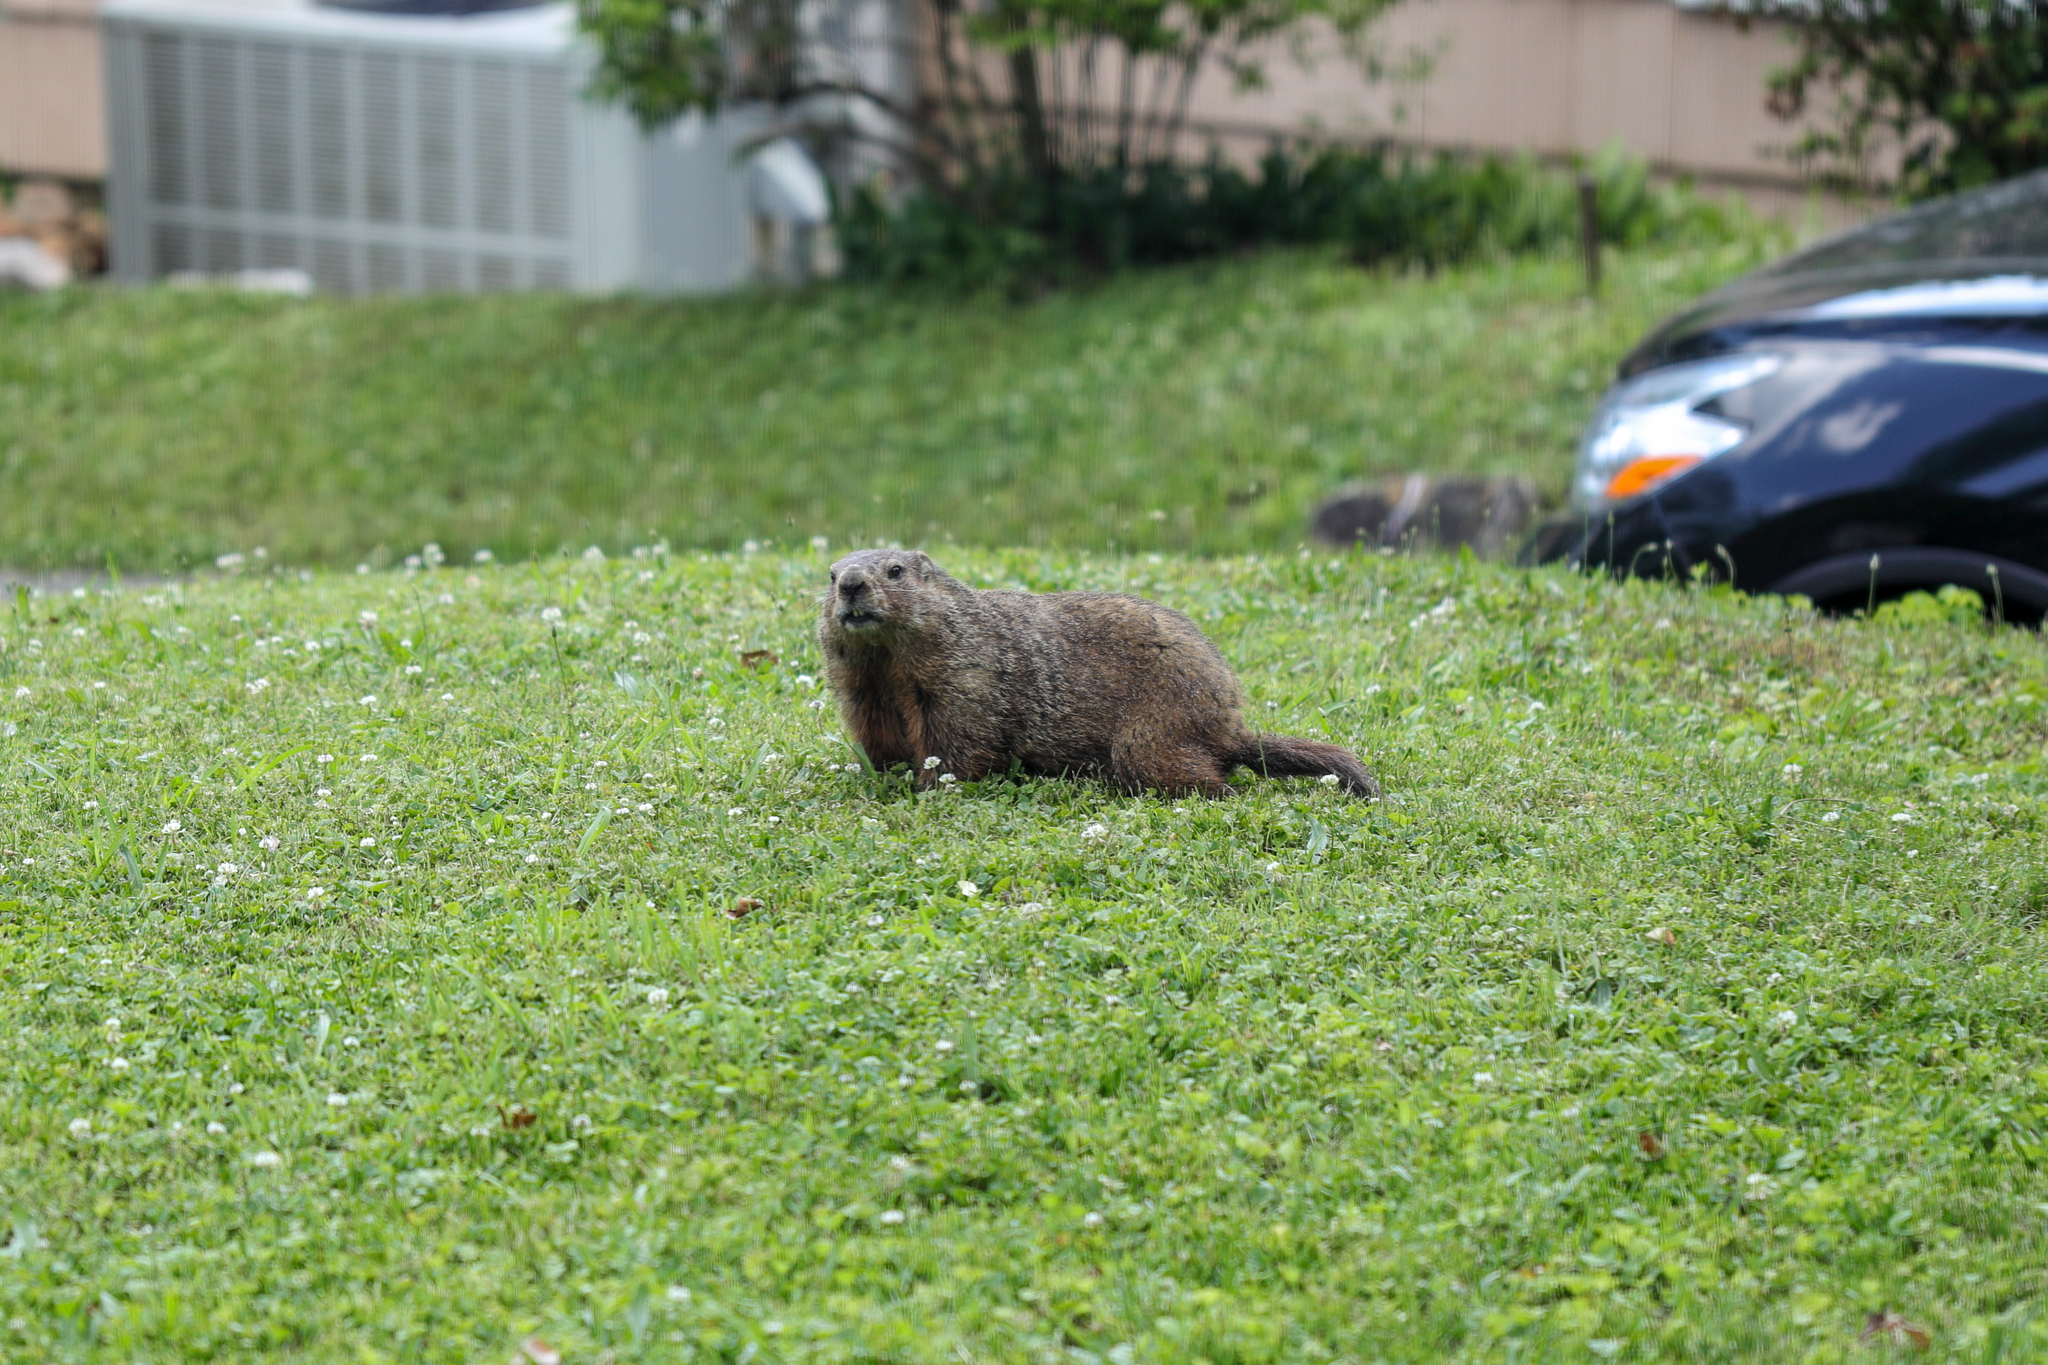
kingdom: Animalia
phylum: Chordata
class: Mammalia
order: Rodentia
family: Sciuridae
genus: Marmota
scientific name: Marmota monax
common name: Groundhog
